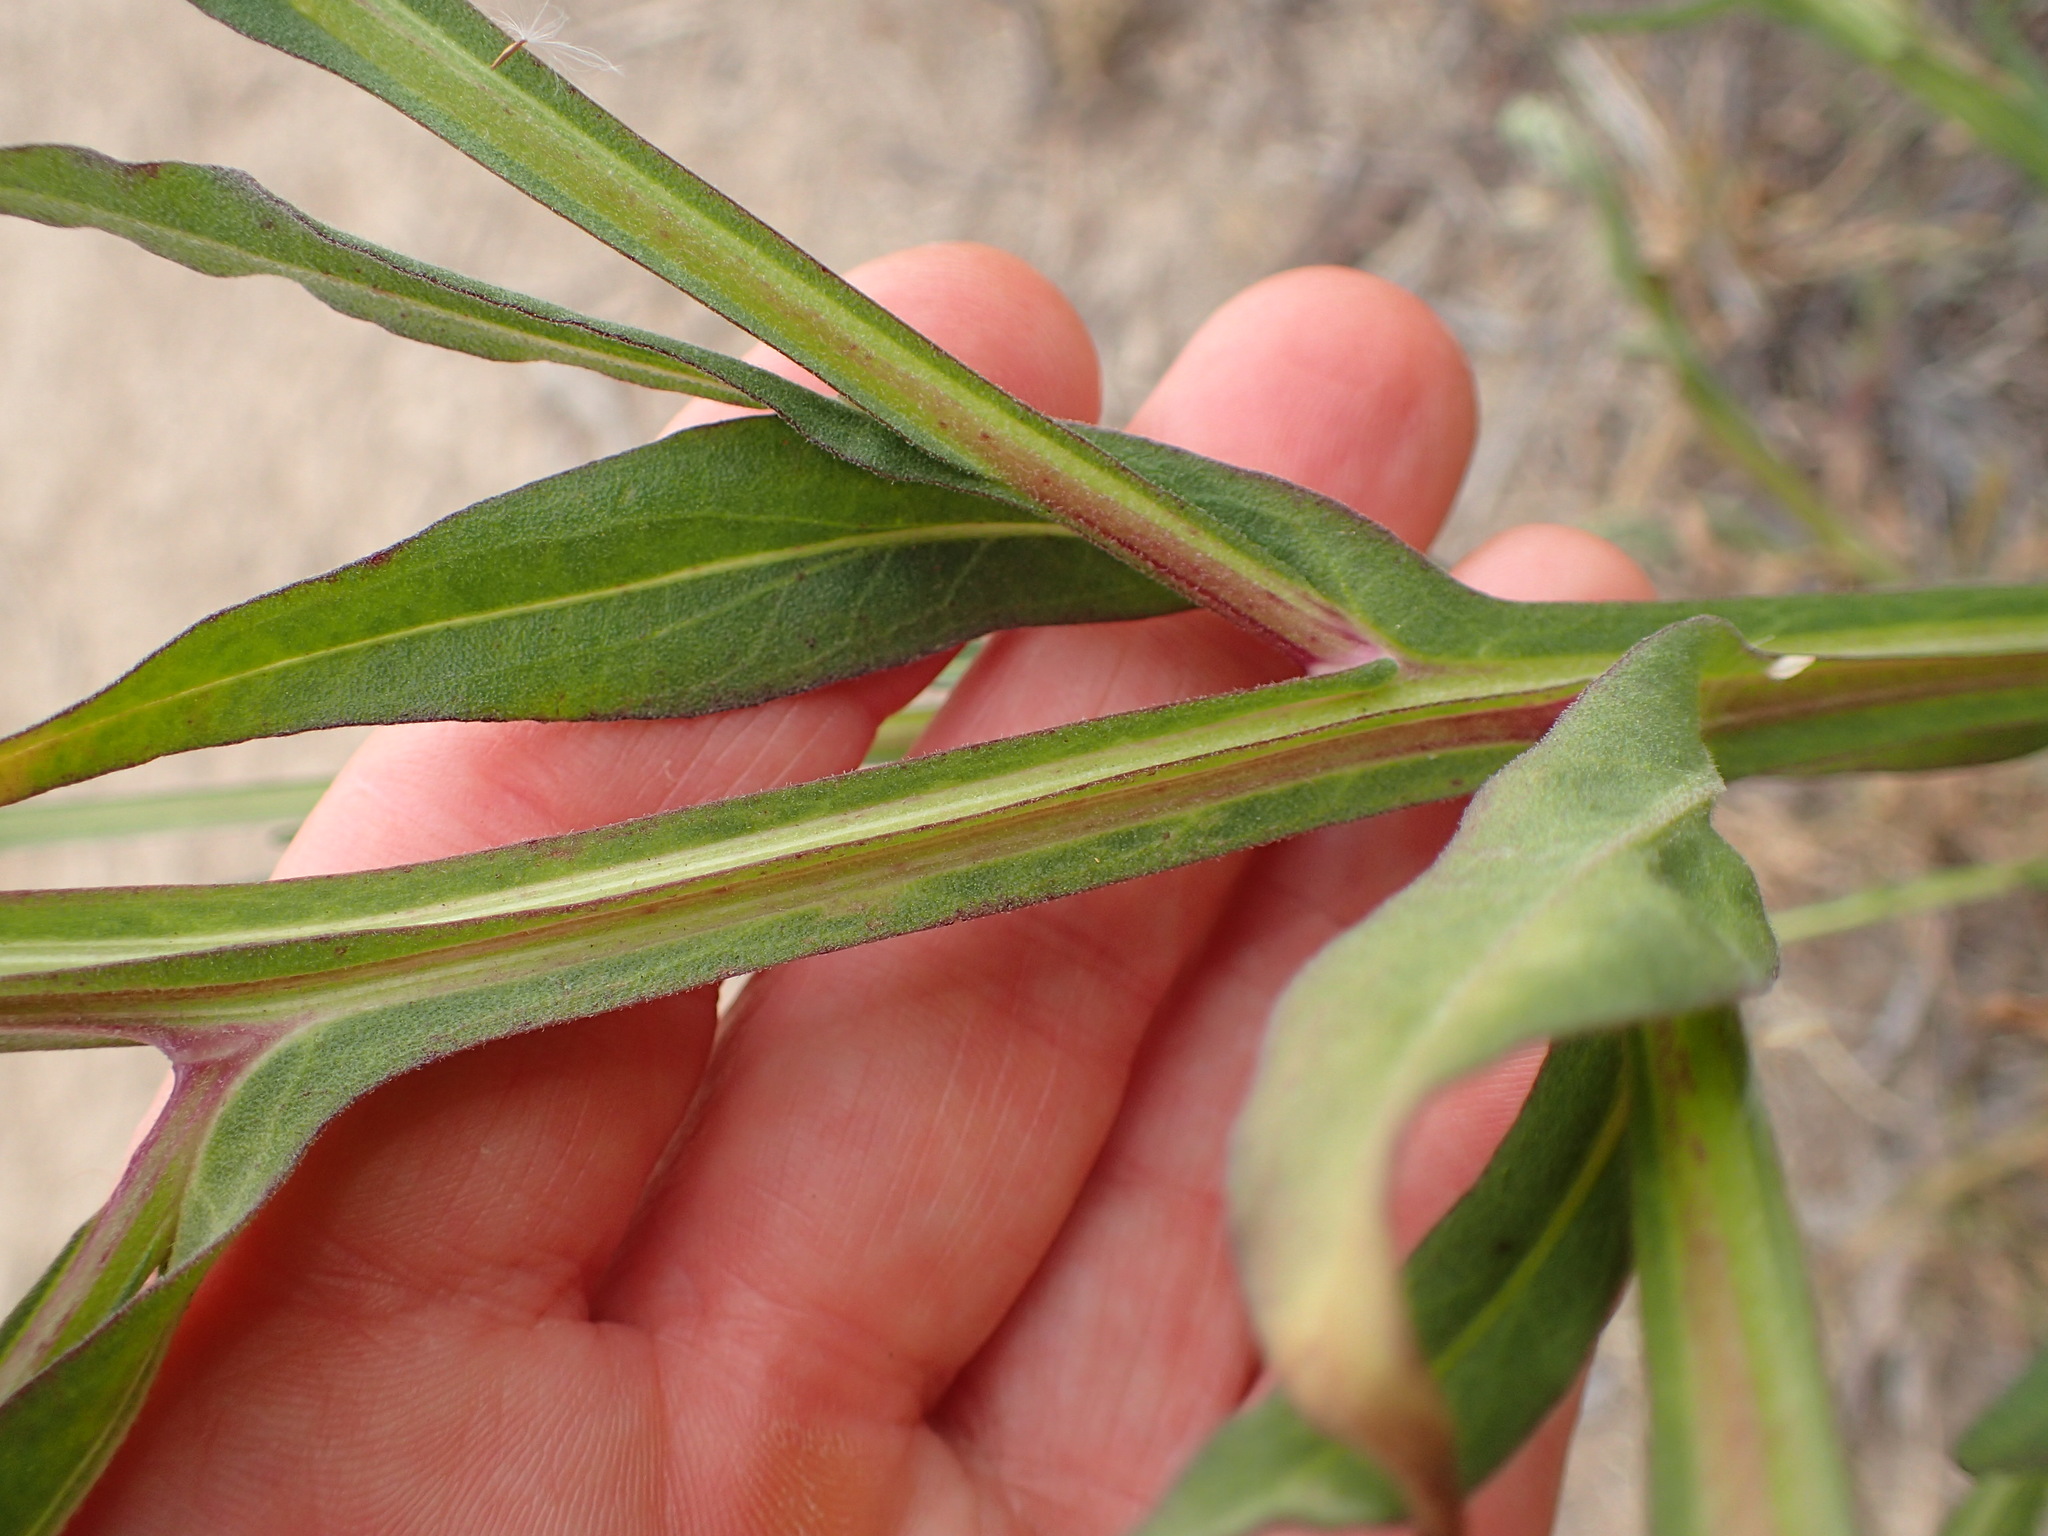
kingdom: Plantae
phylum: Tracheophyta
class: Magnoliopsida
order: Asterales
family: Asteraceae
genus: Helenium
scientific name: Helenium puberulum
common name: Sneezewort
